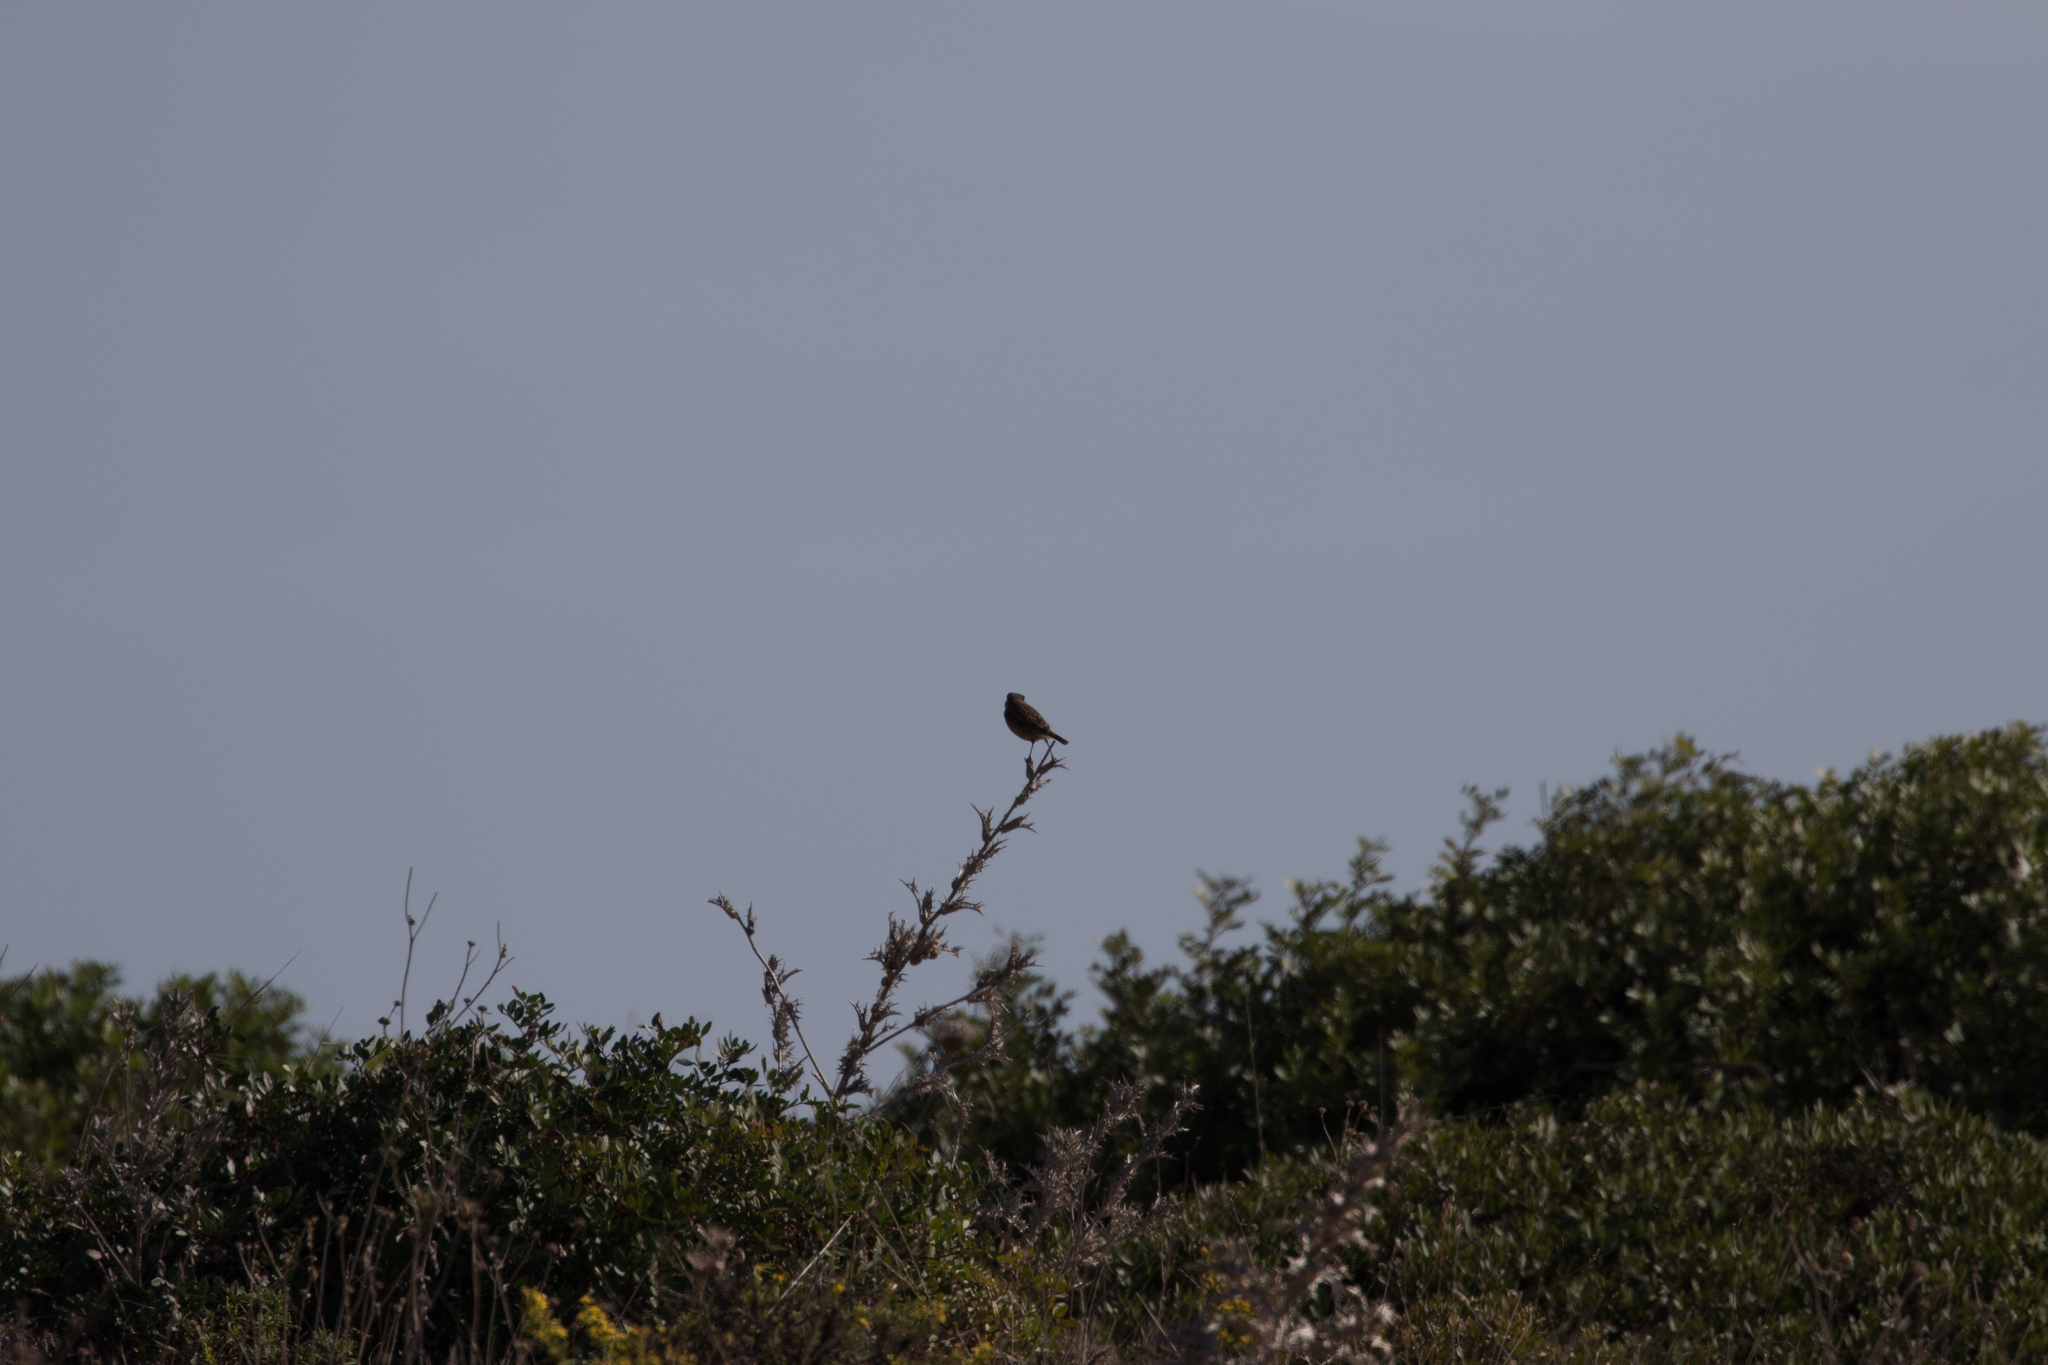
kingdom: Animalia
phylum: Chordata
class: Aves
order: Passeriformes
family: Muscicapidae
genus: Saxicola
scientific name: Saxicola rubicola
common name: European stonechat
